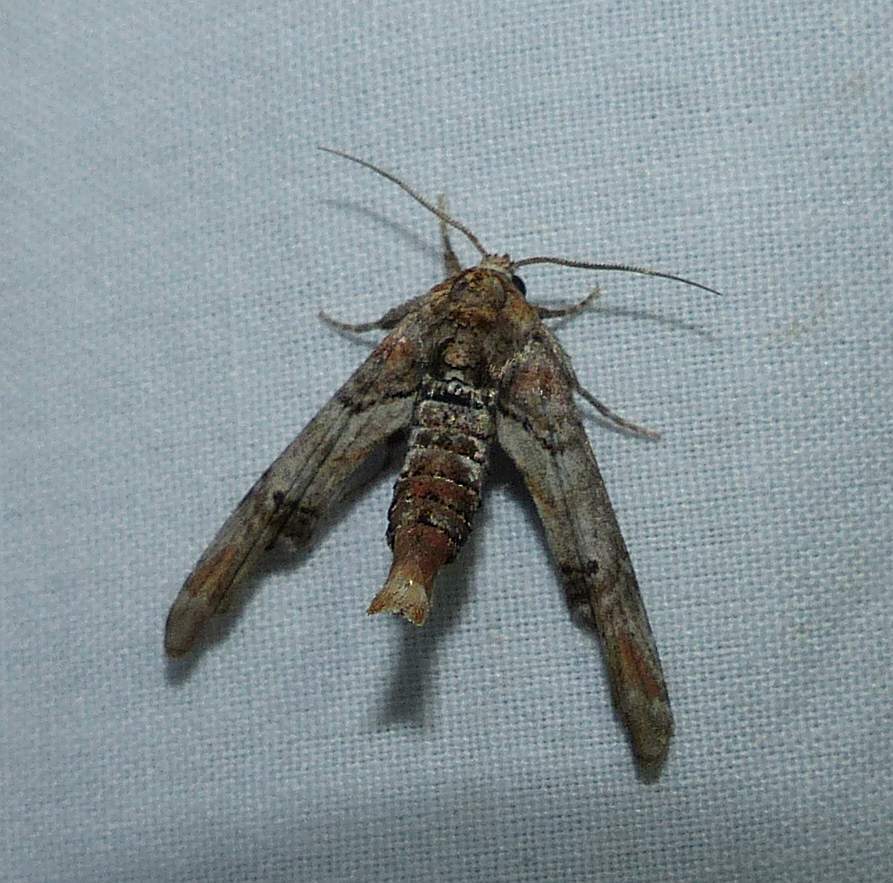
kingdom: Animalia
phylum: Arthropoda
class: Insecta
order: Lepidoptera
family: Euteliidae
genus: Marathyssa
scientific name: Marathyssa inficita
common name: Dark marathyssa moth
